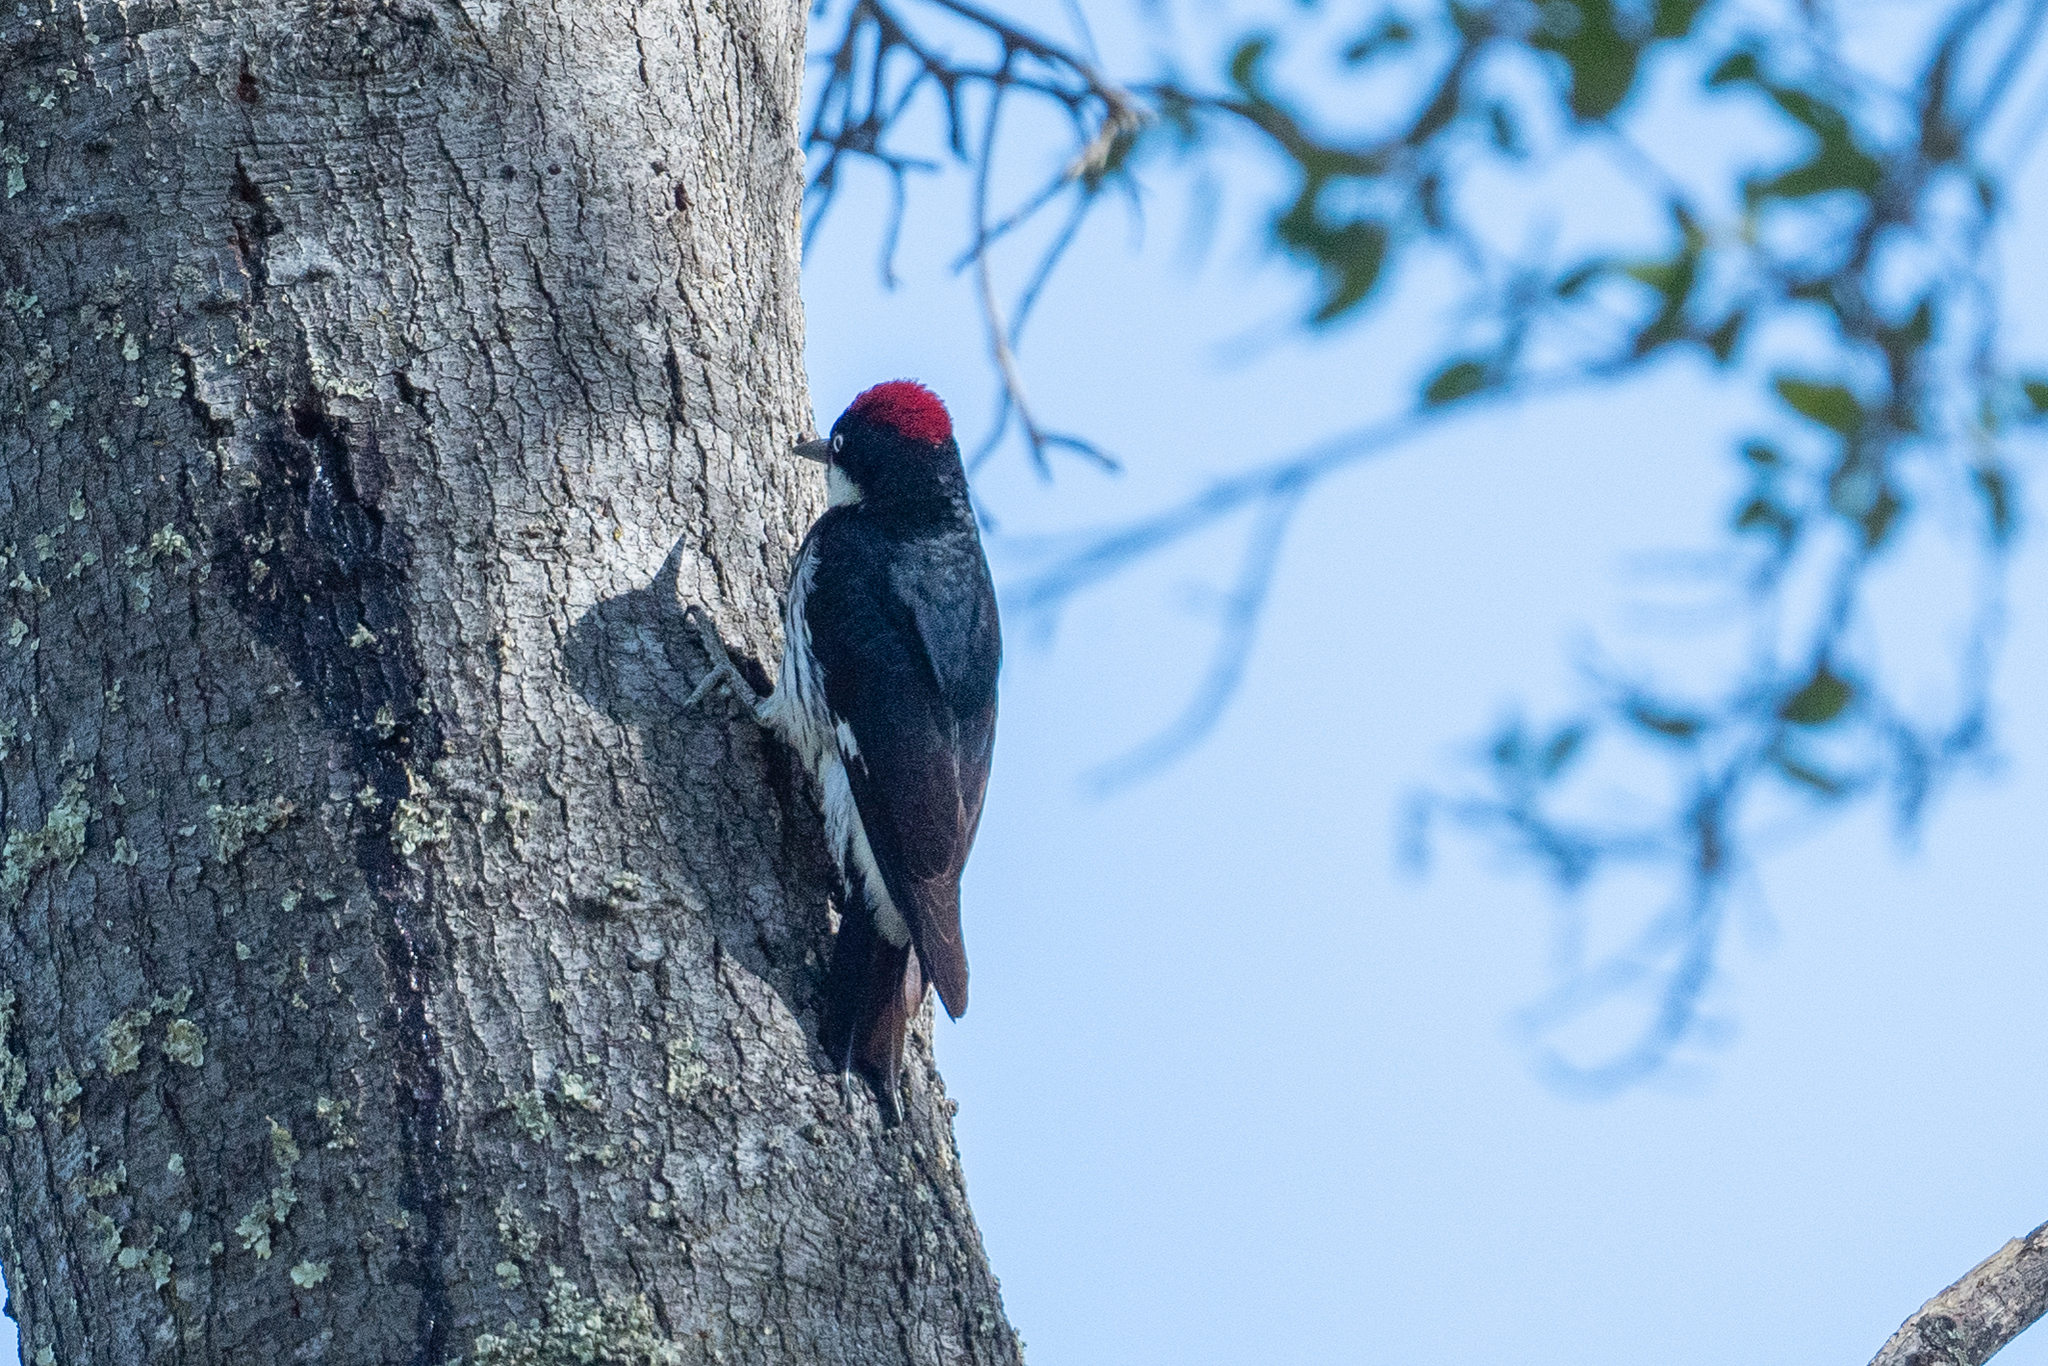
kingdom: Animalia
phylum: Chordata
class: Aves
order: Piciformes
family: Picidae
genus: Melanerpes
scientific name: Melanerpes formicivorus
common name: Acorn woodpecker
